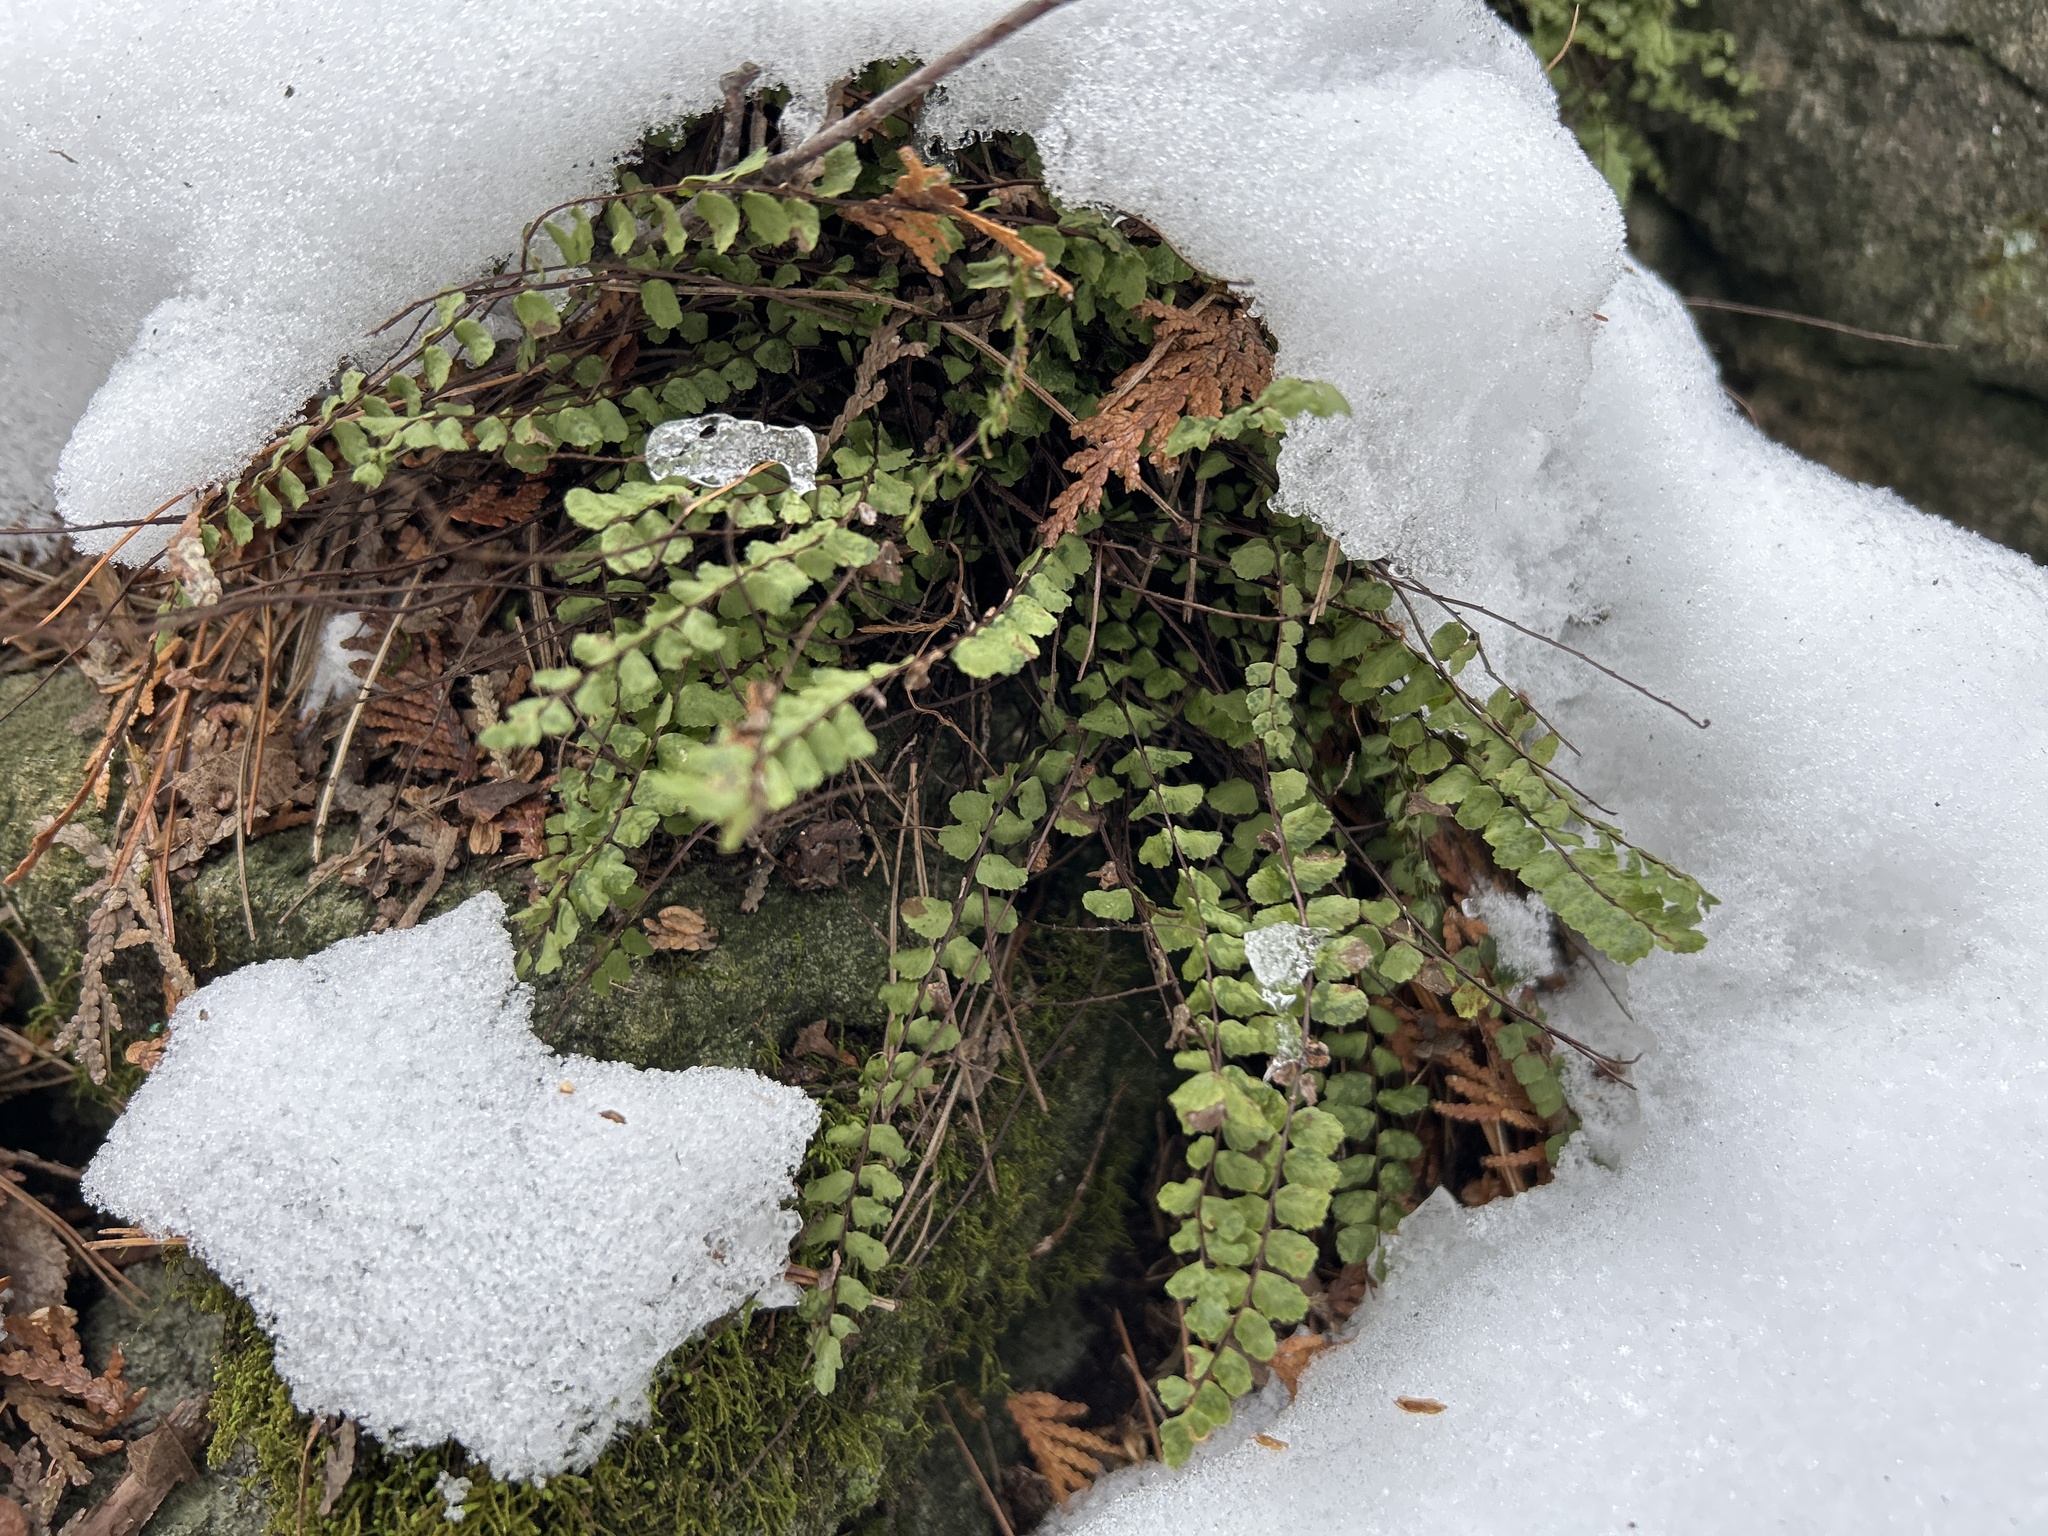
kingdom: Plantae
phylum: Tracheophyta
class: Polypodiopsida
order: Polypodiales
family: Aspleniaceae
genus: Asplenium
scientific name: Asplenium trichomanes
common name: Maidenhair spleenwort
